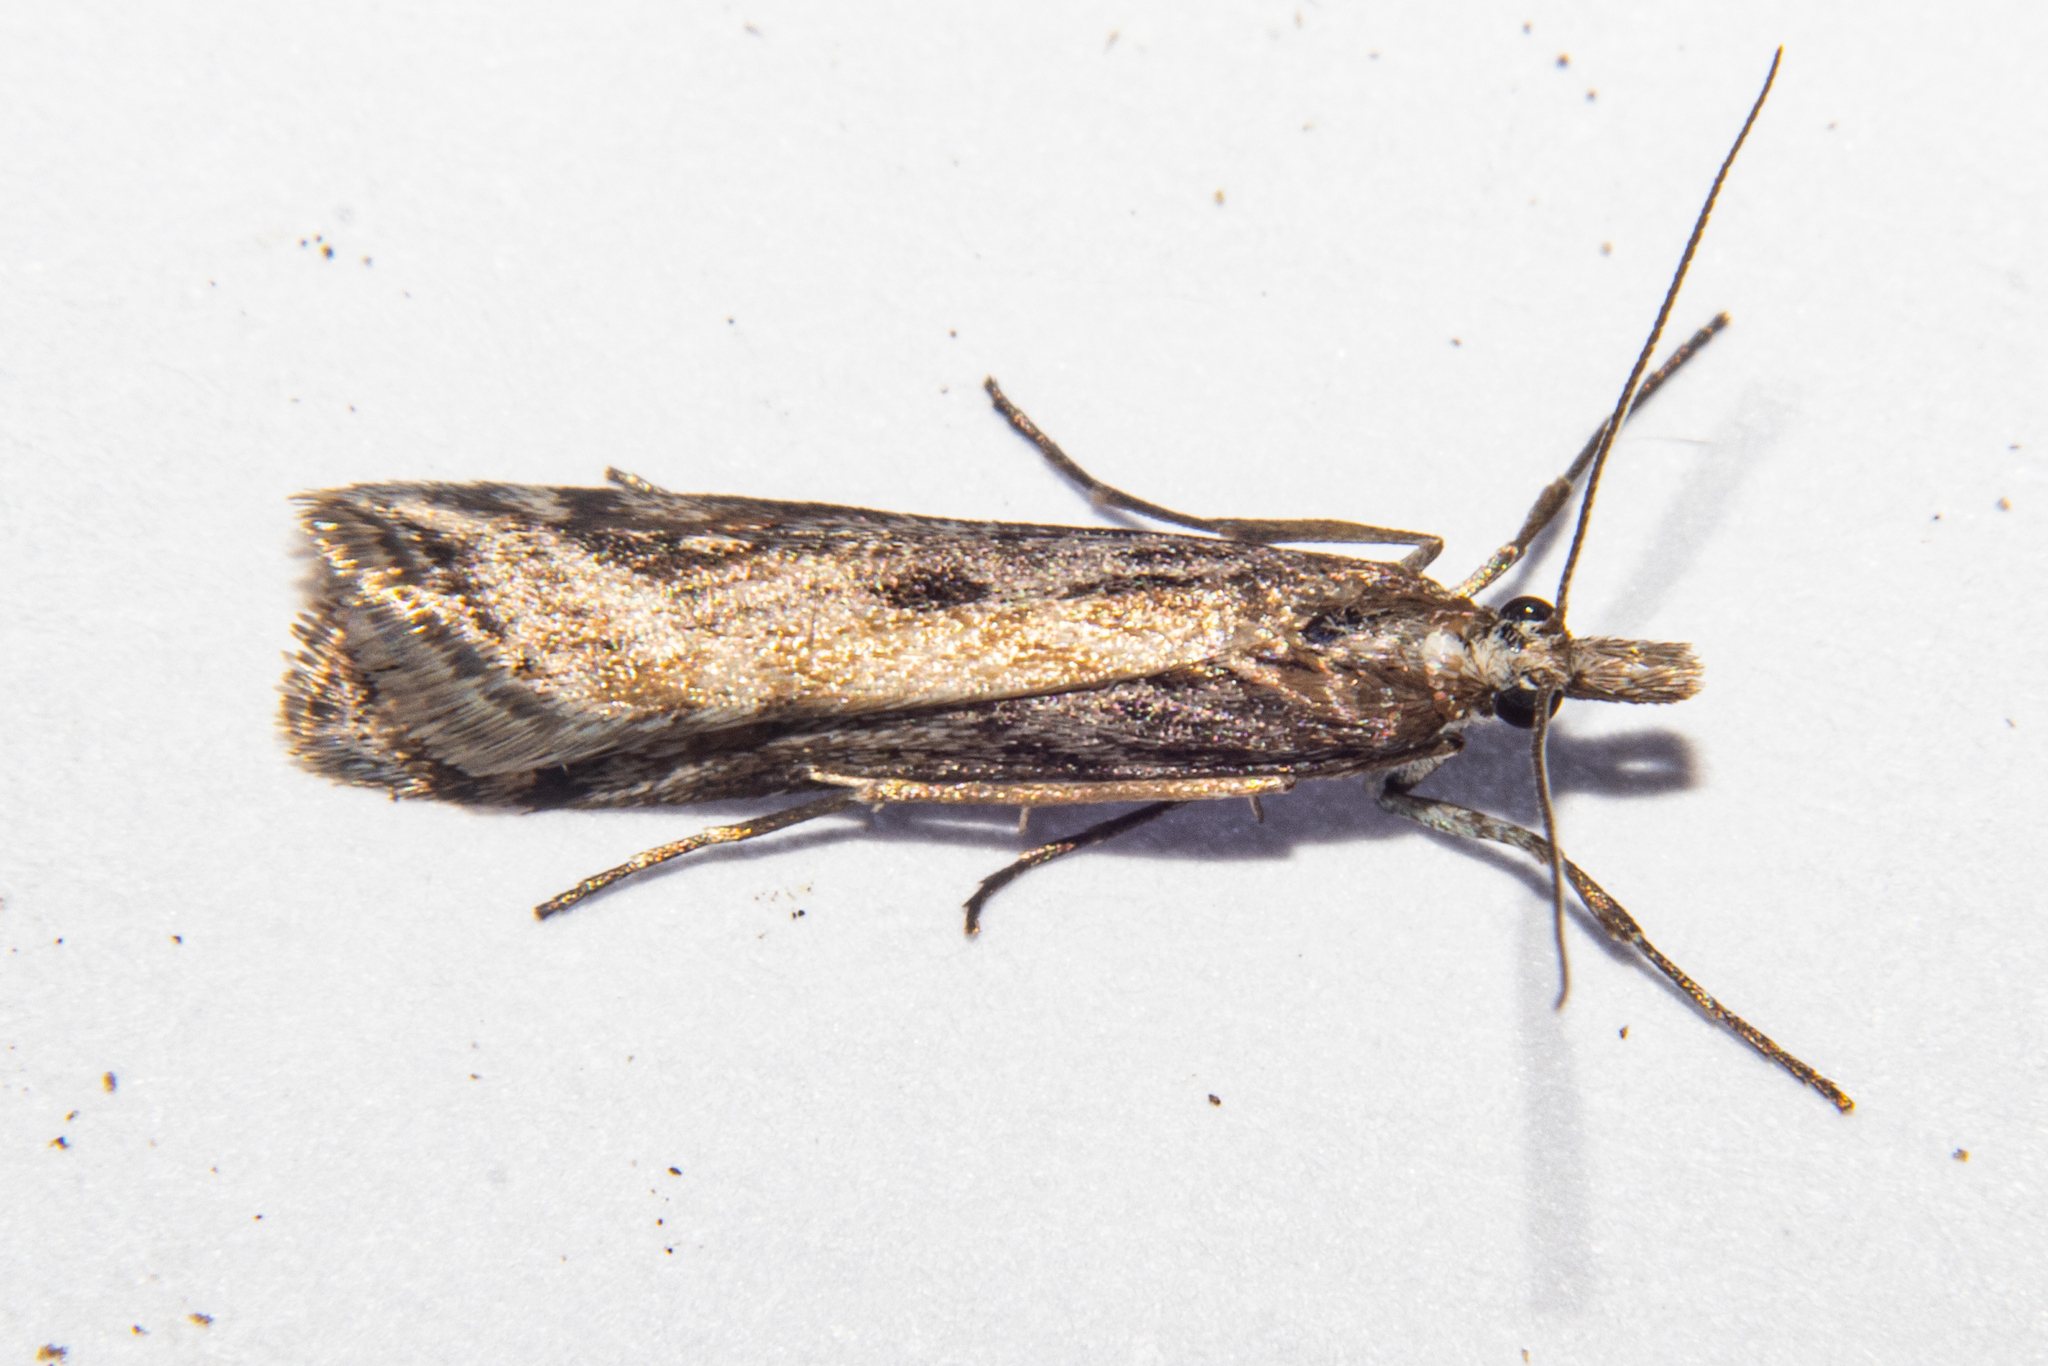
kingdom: Animalia
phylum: Arthropoda
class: Insecta
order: Lepidoptera
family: Crambidae
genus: Scoparia
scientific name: Scoparia exilis
